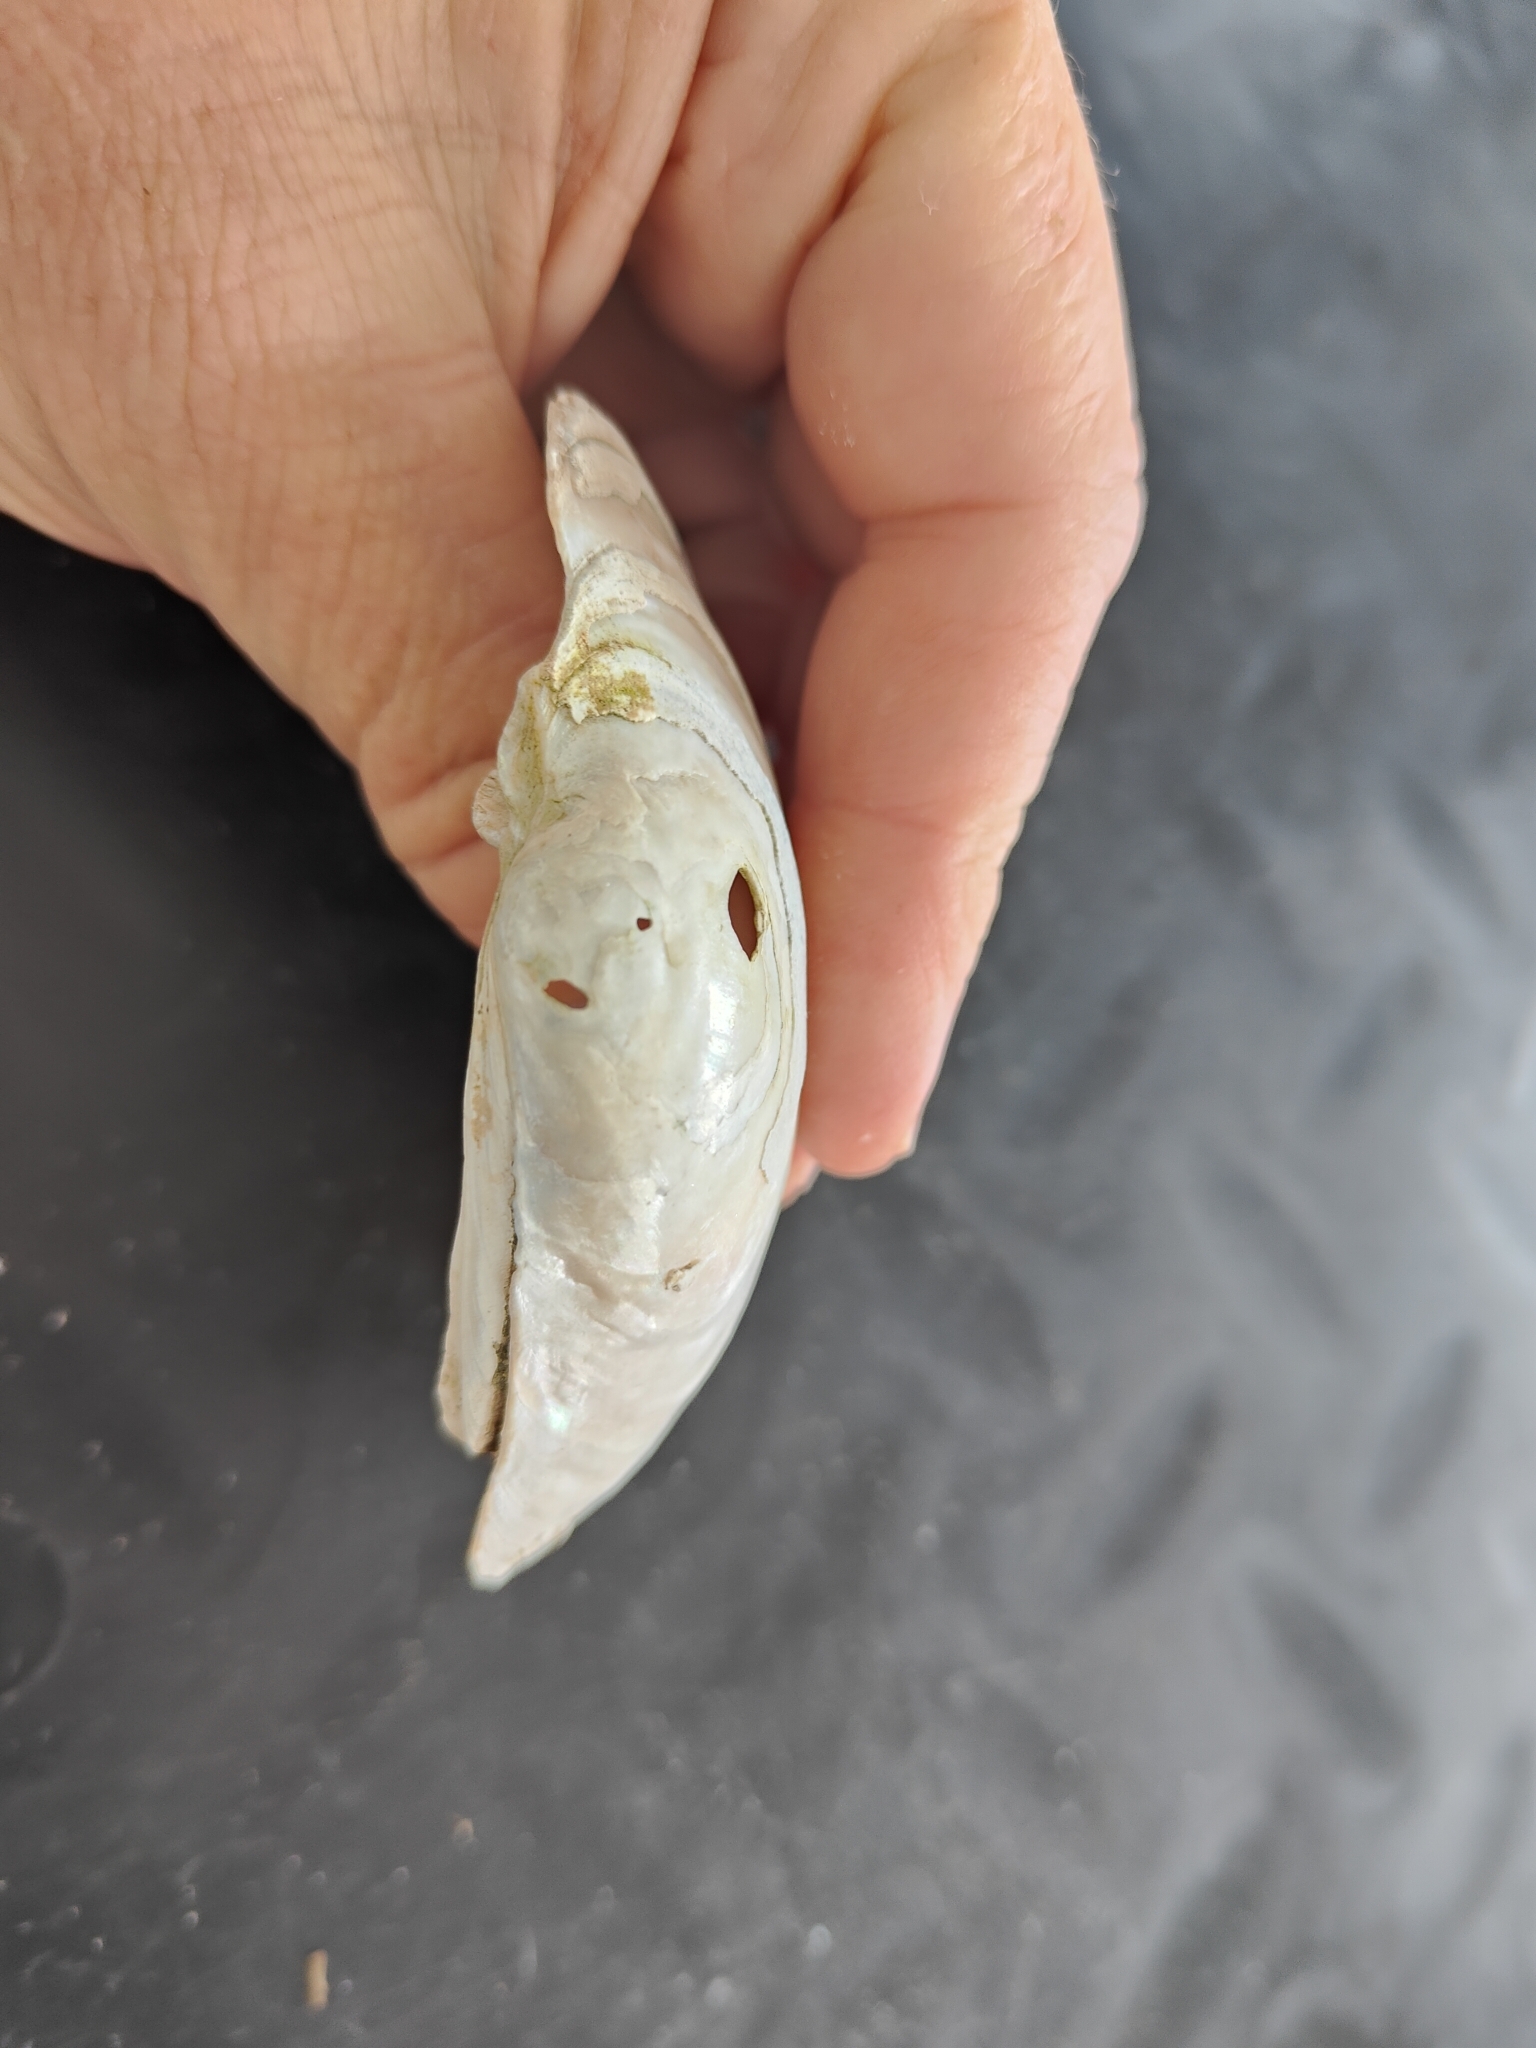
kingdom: Animalia
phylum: Mollusca
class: Bivalvia
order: Unionida
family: Unionidae
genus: Lampsilis
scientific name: Lampsilis cardium
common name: Plain pocketbook
